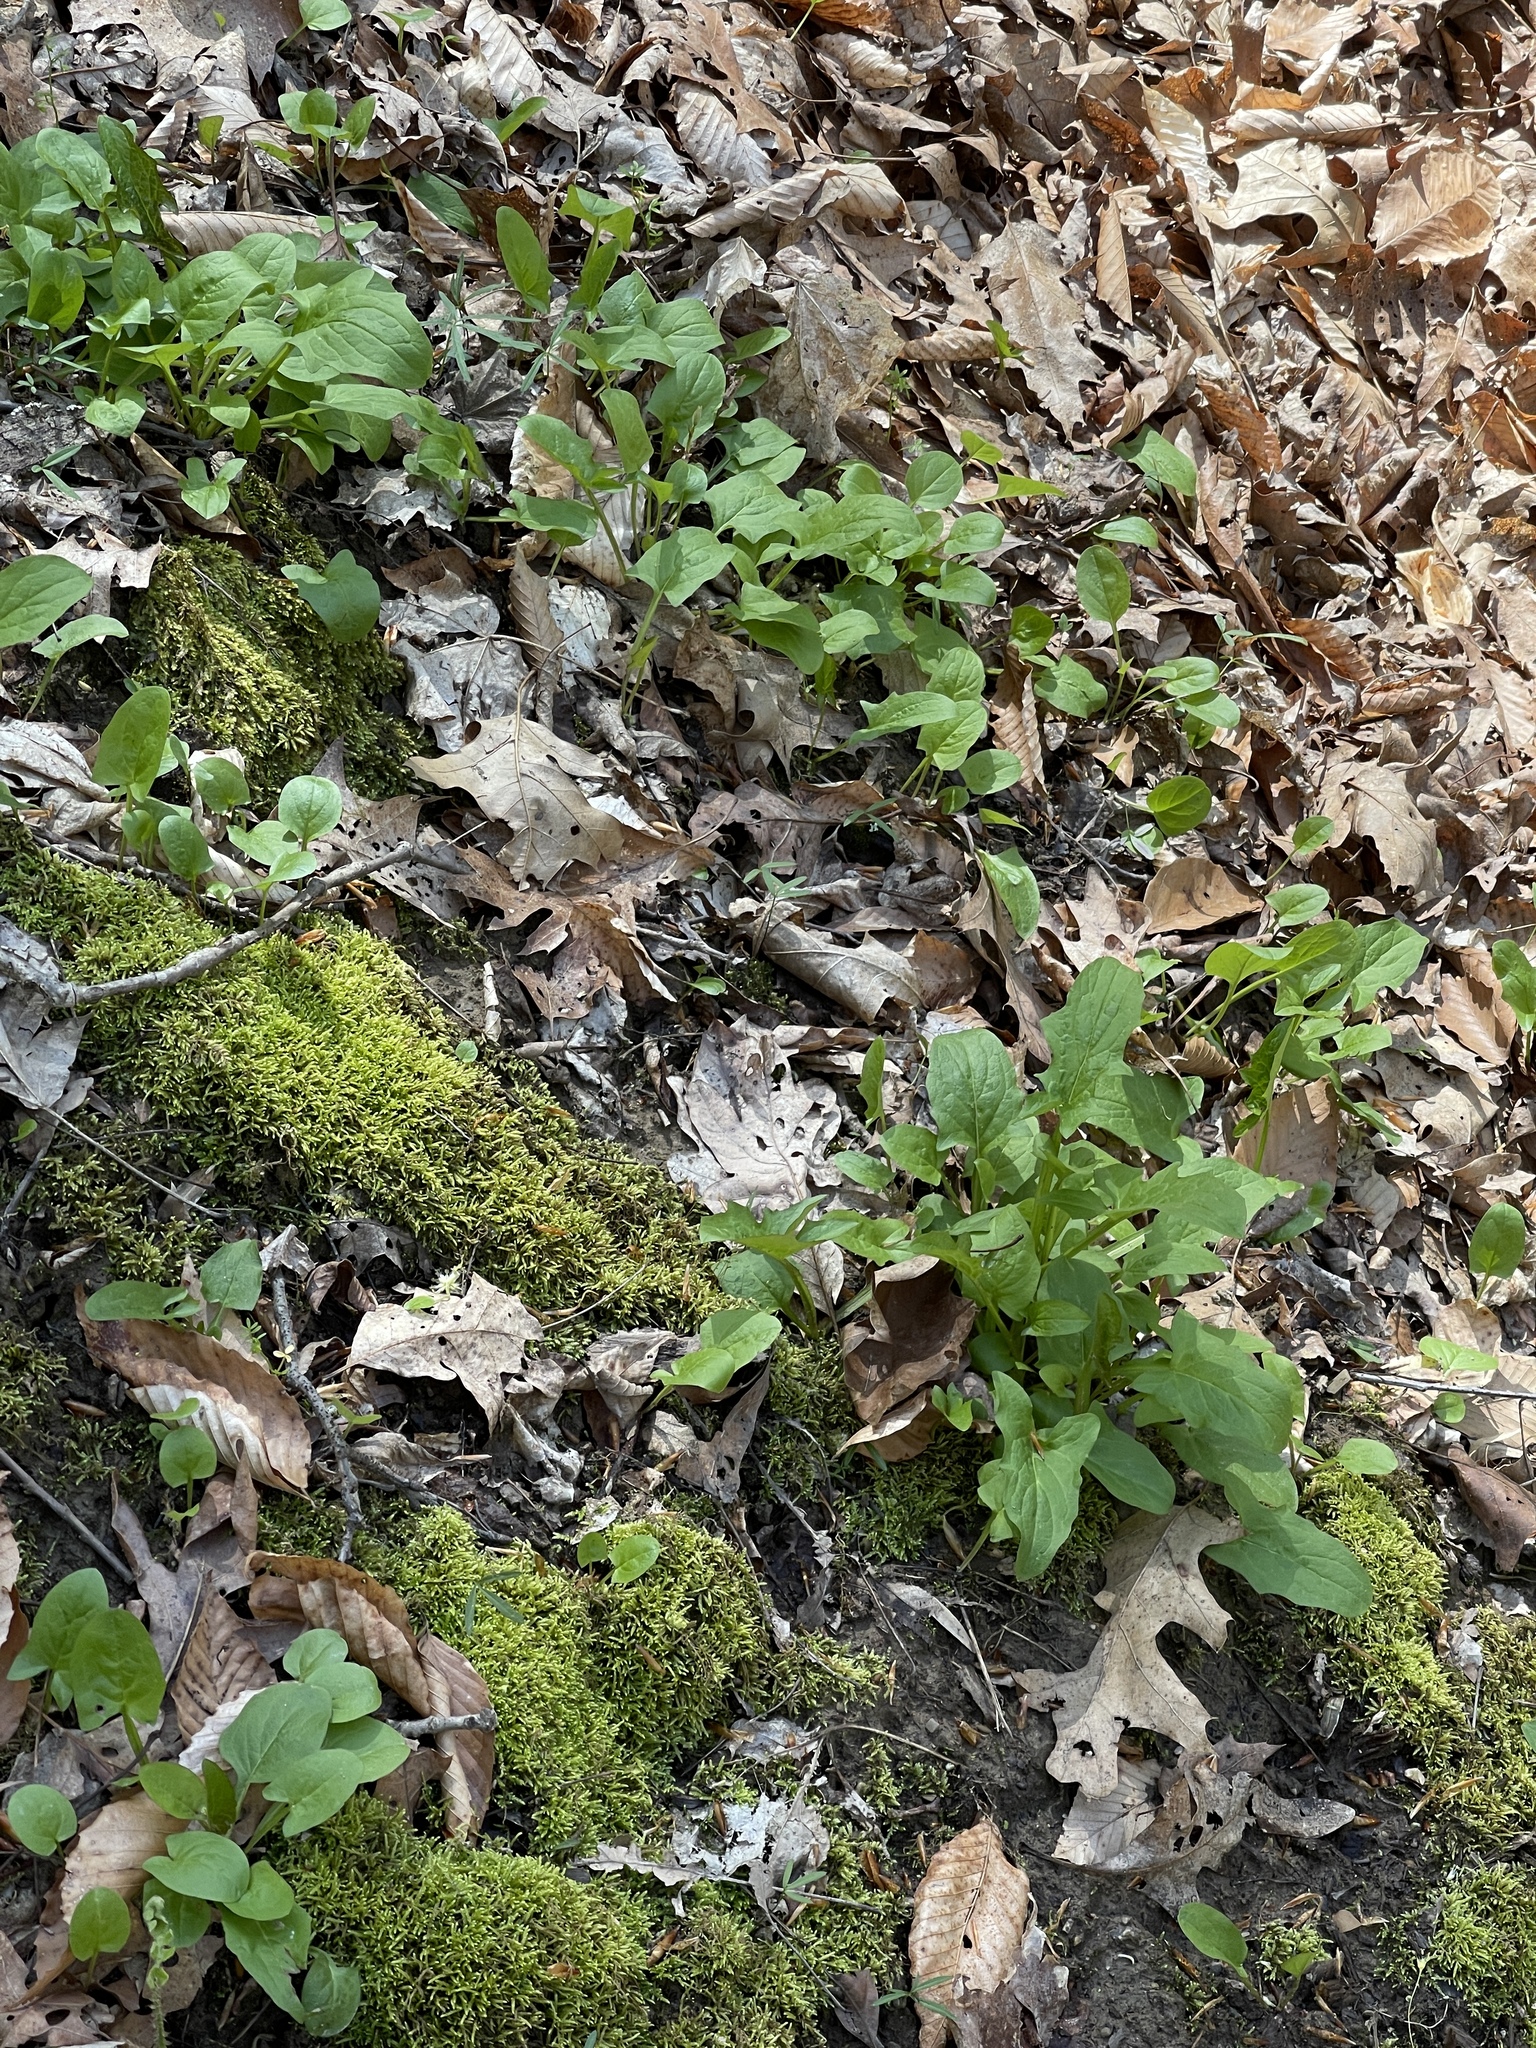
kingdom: Plantae
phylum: Tracheophyta
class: Magnoliopsida
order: Asterales
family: Asteraceae
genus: Nabalus
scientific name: Nabalus crepidineus
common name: Nodding rattlesnakeroot
